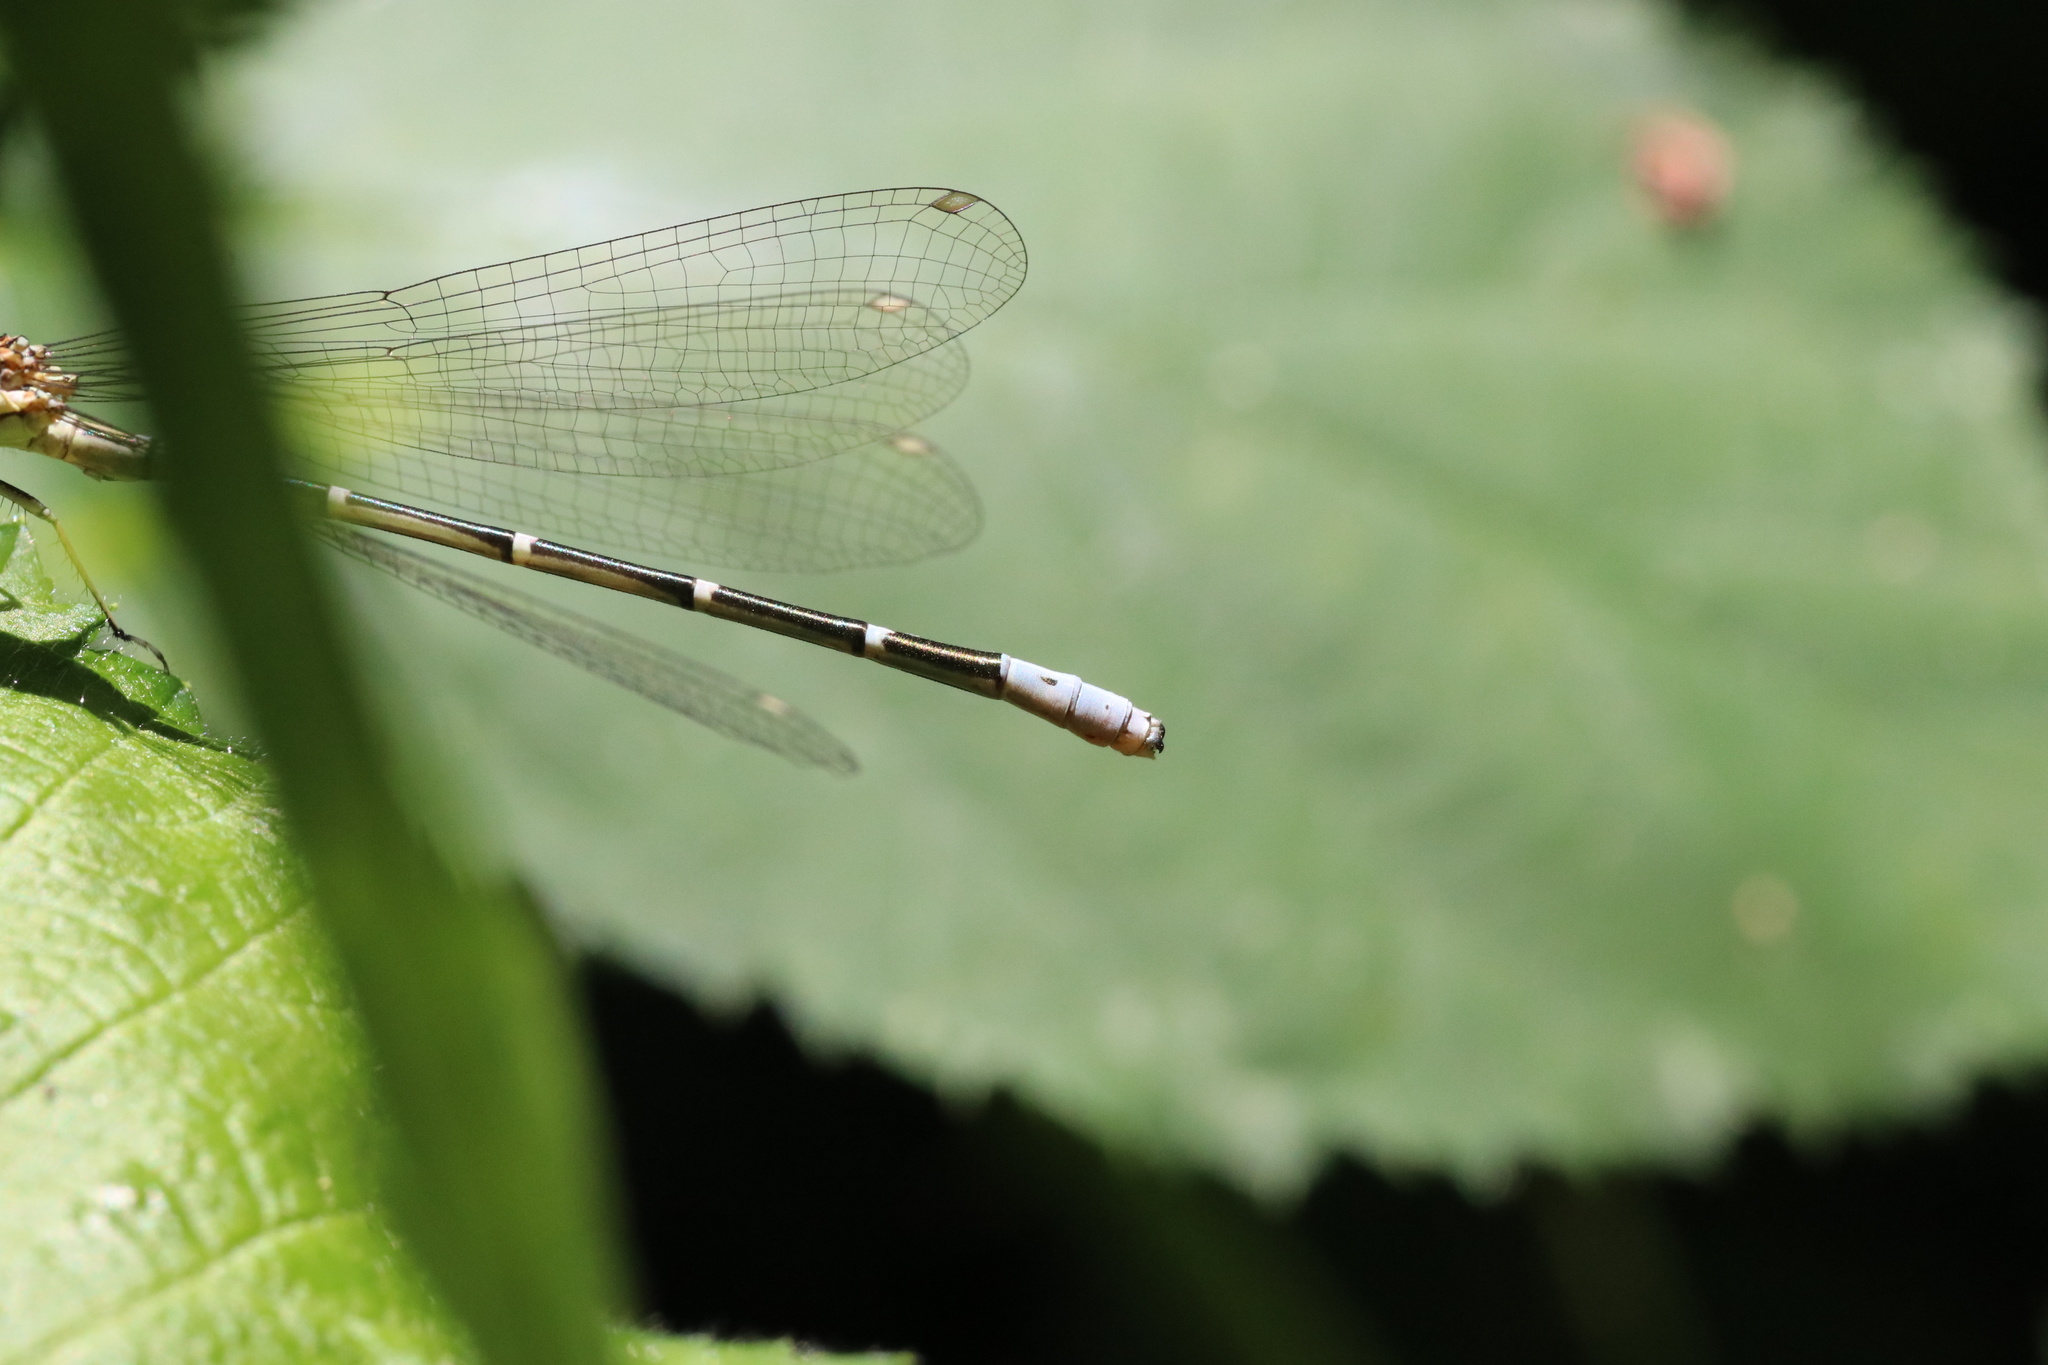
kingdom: Animalia
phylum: Arthropoda
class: Insecta
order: Odonata
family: Coenagrionidae
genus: Antiagrion
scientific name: Antiagrion gayi
